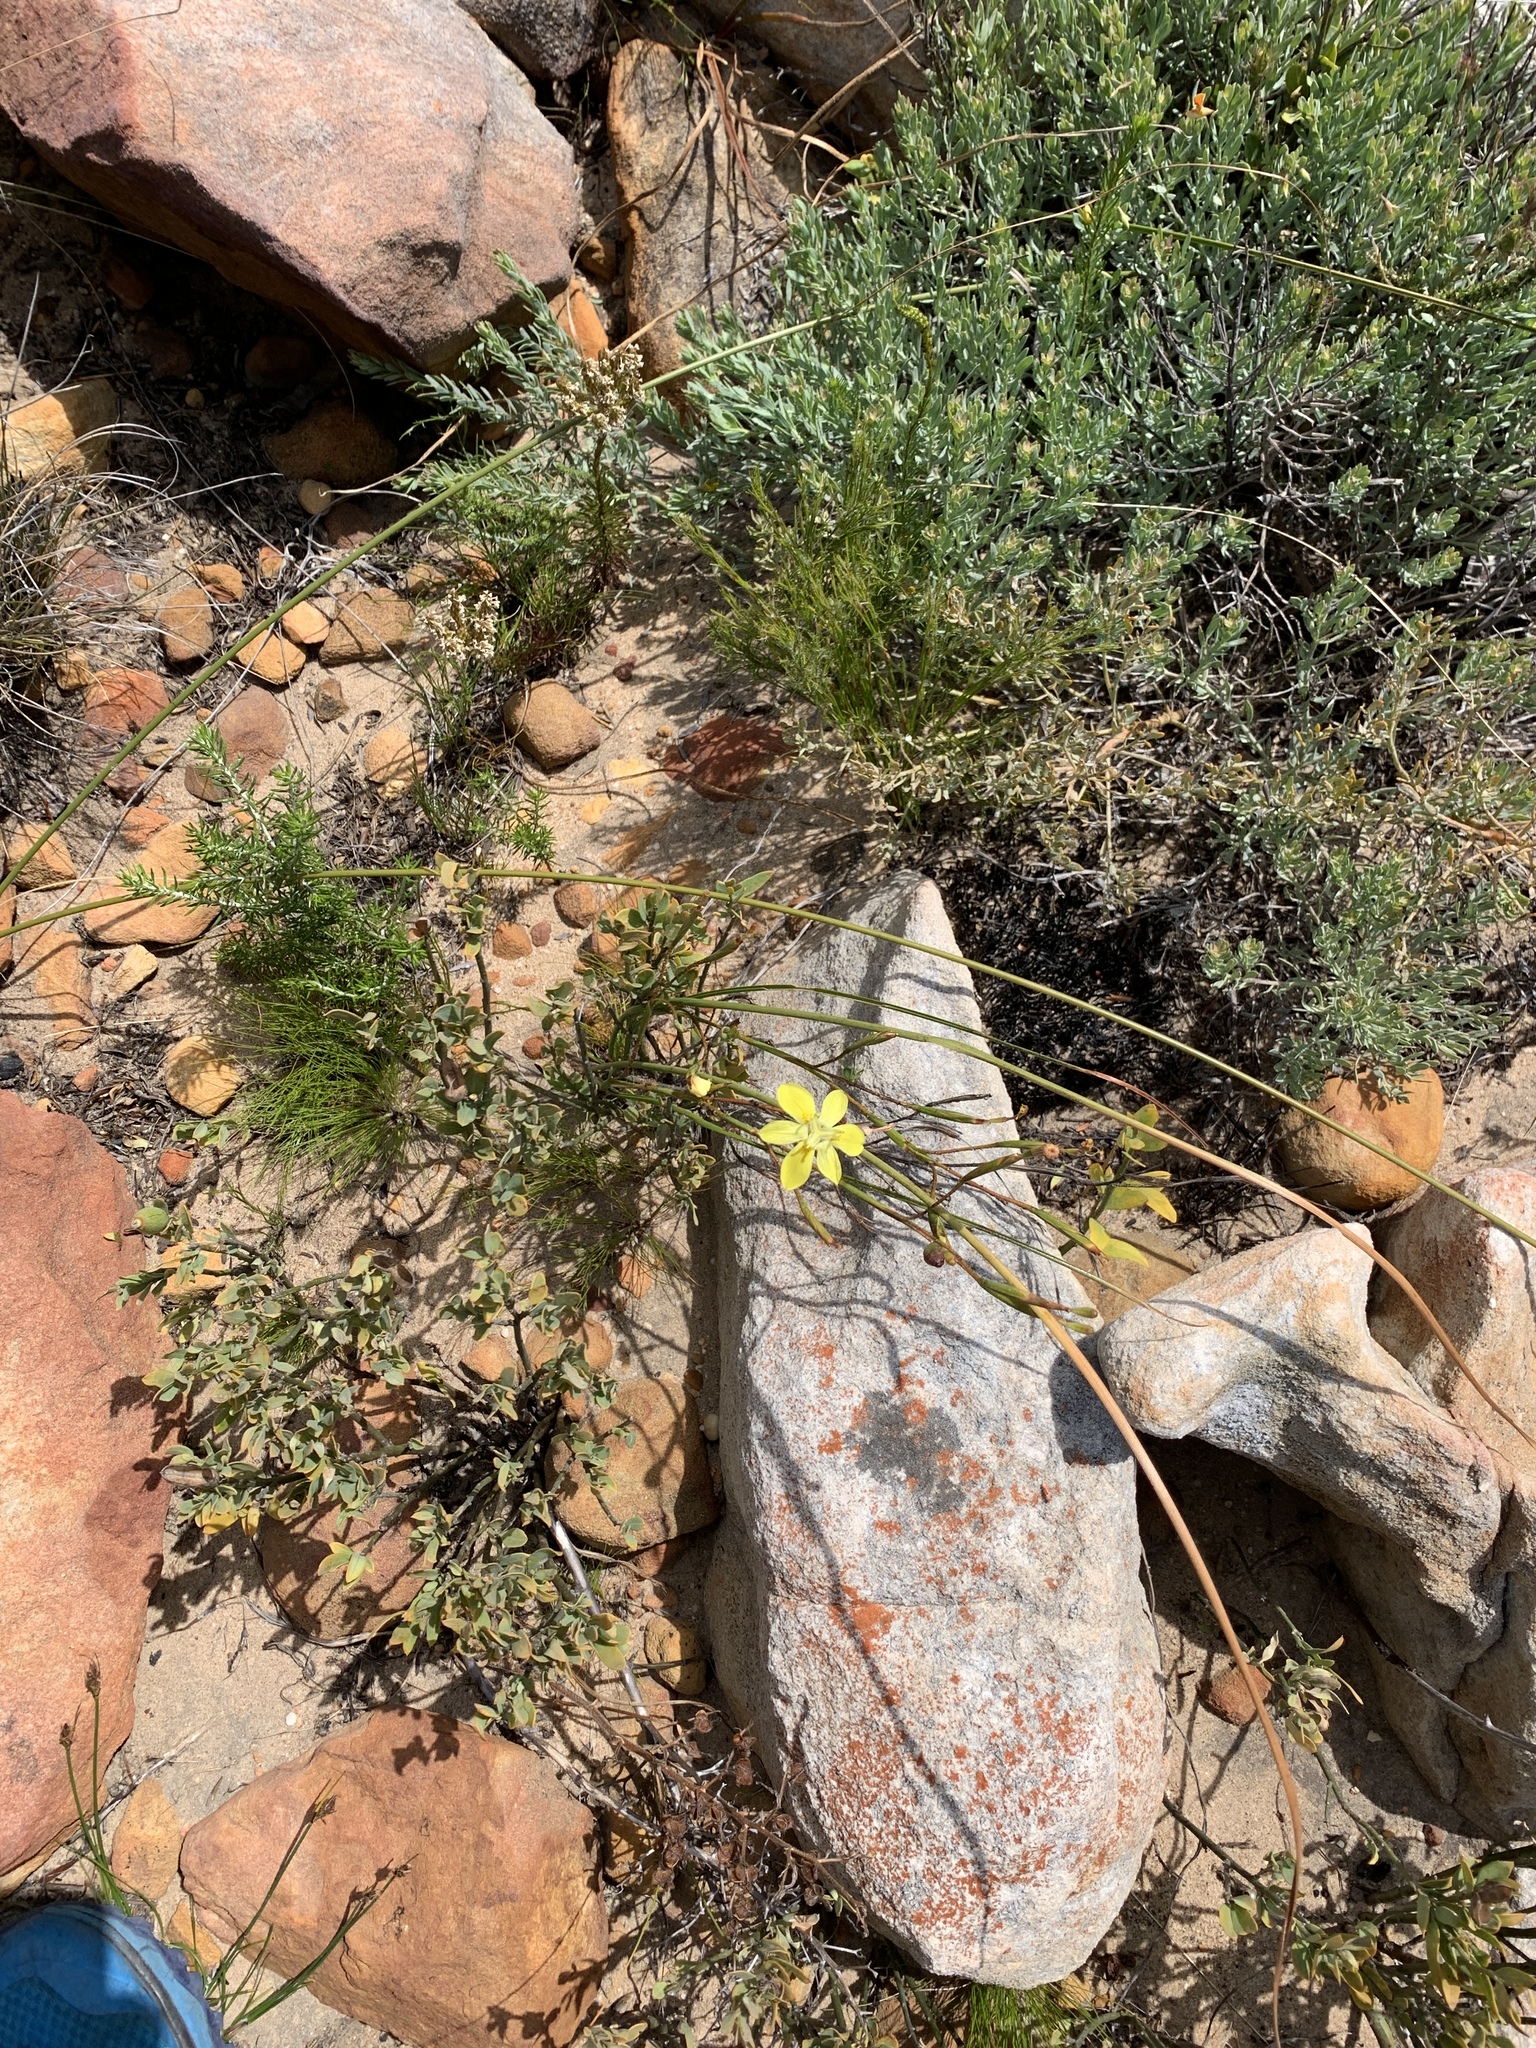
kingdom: Plantae
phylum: Tracheophyta
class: Liliopsida
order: Asparagales
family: Iridaceae
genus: Moraea
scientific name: Moraea bituminosa
